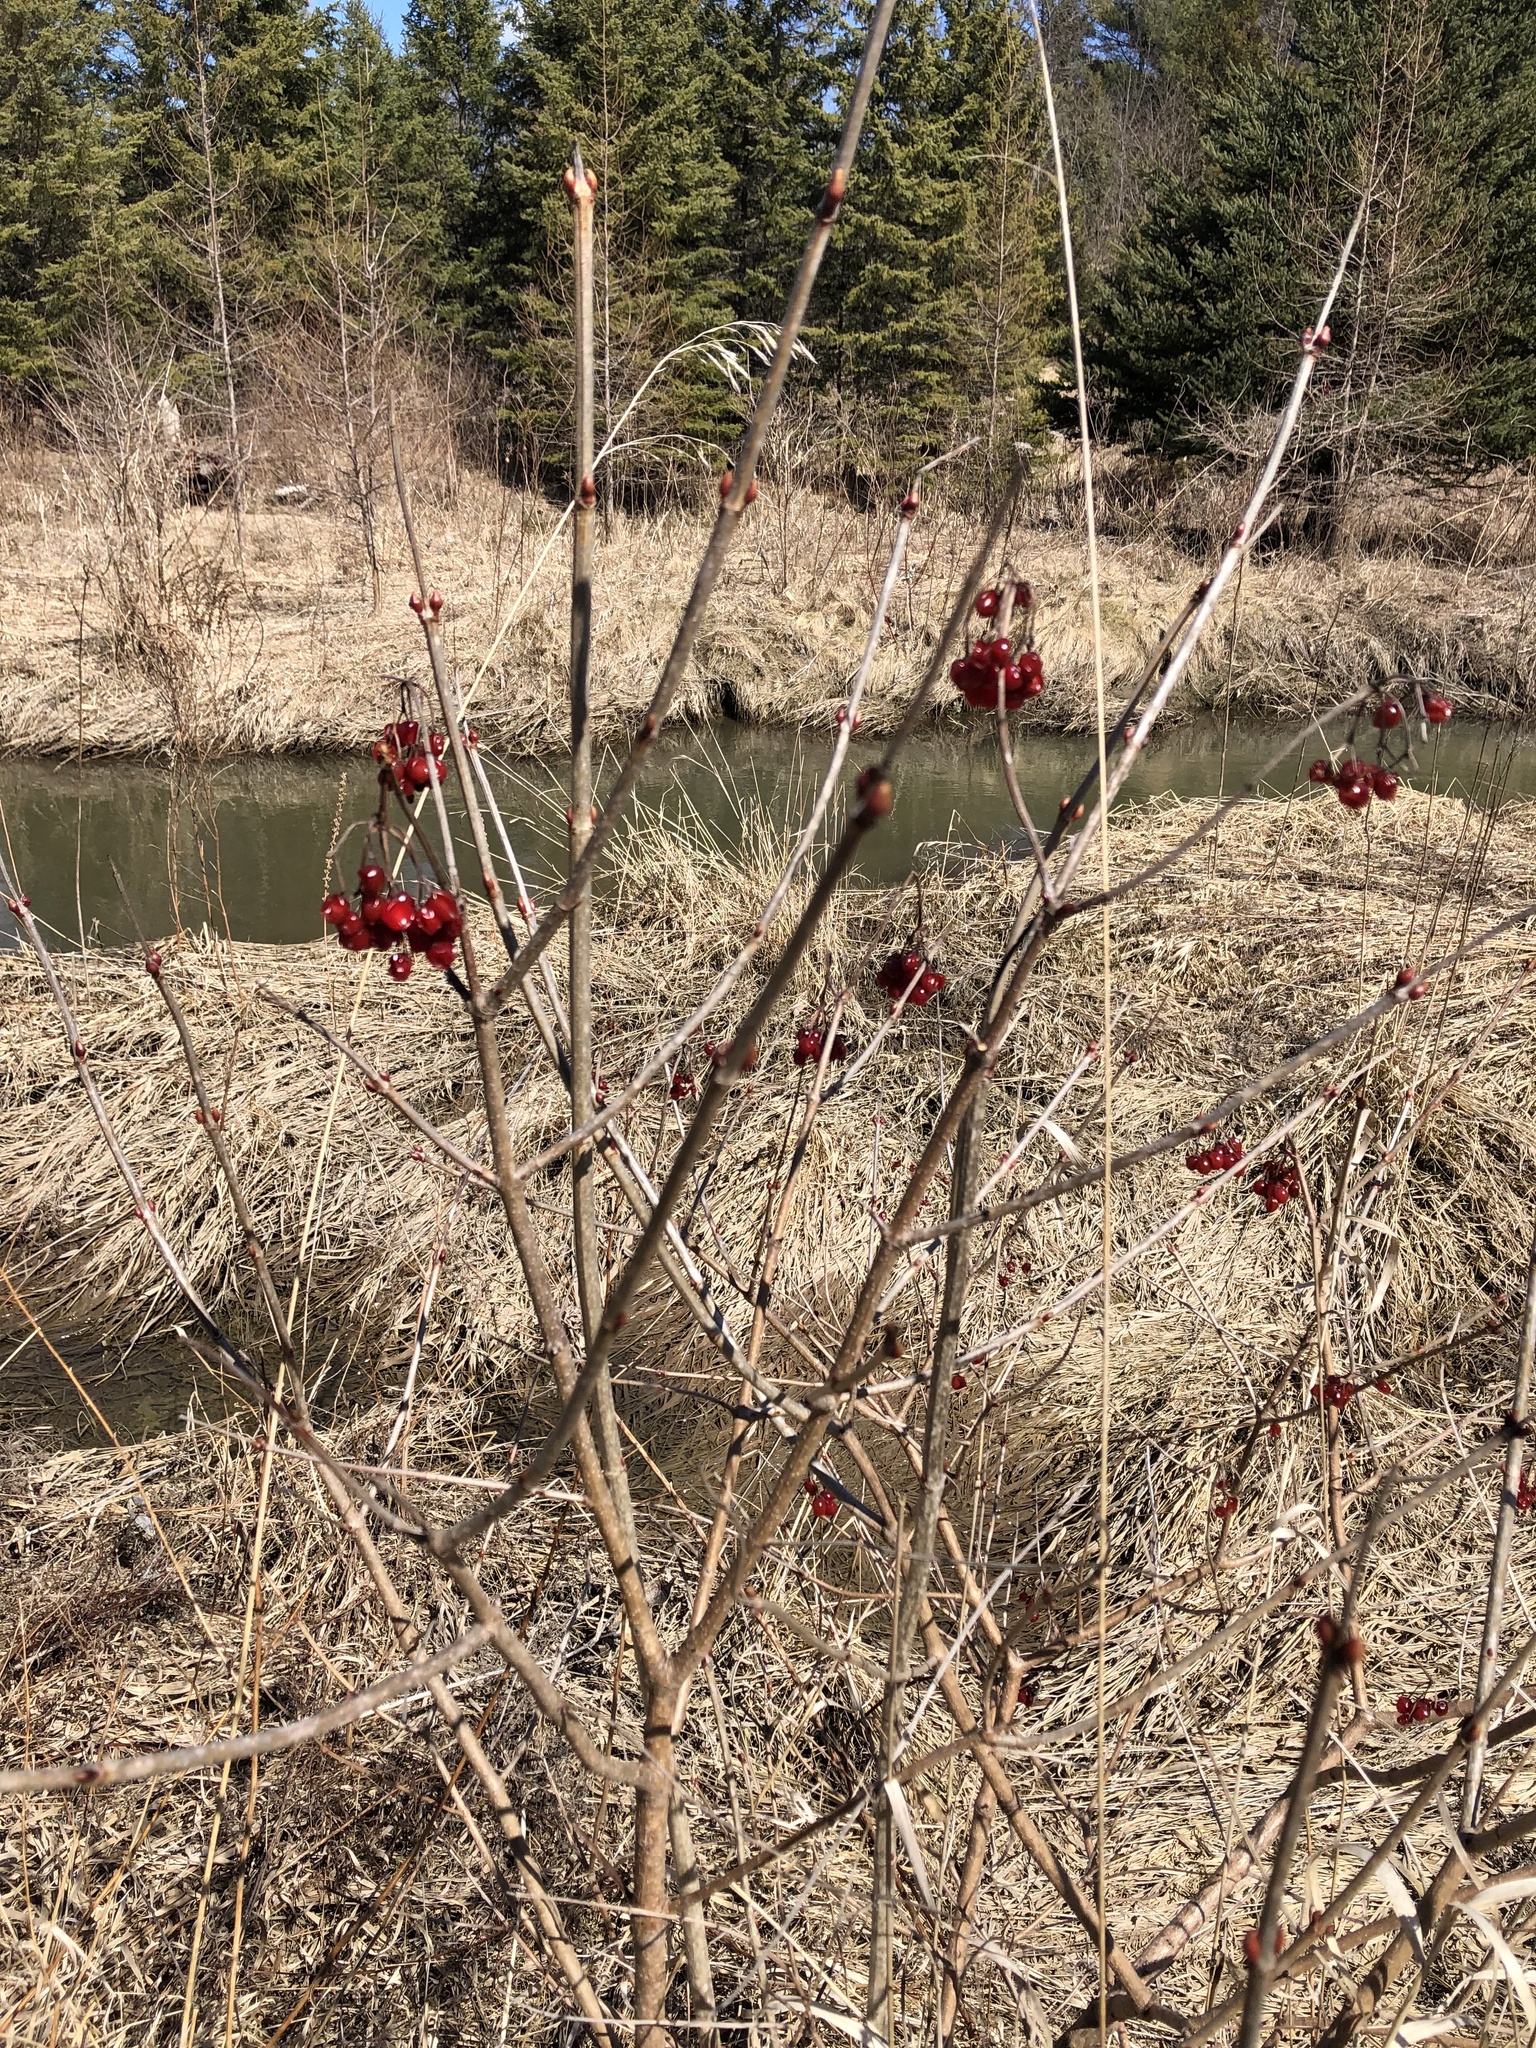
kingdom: Plantae
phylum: Tracheophyta
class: Magnoliopsida
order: Dipsacales
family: Viburnaceae
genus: Viburnum
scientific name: Viburnum opulus
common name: Guelder-rose
